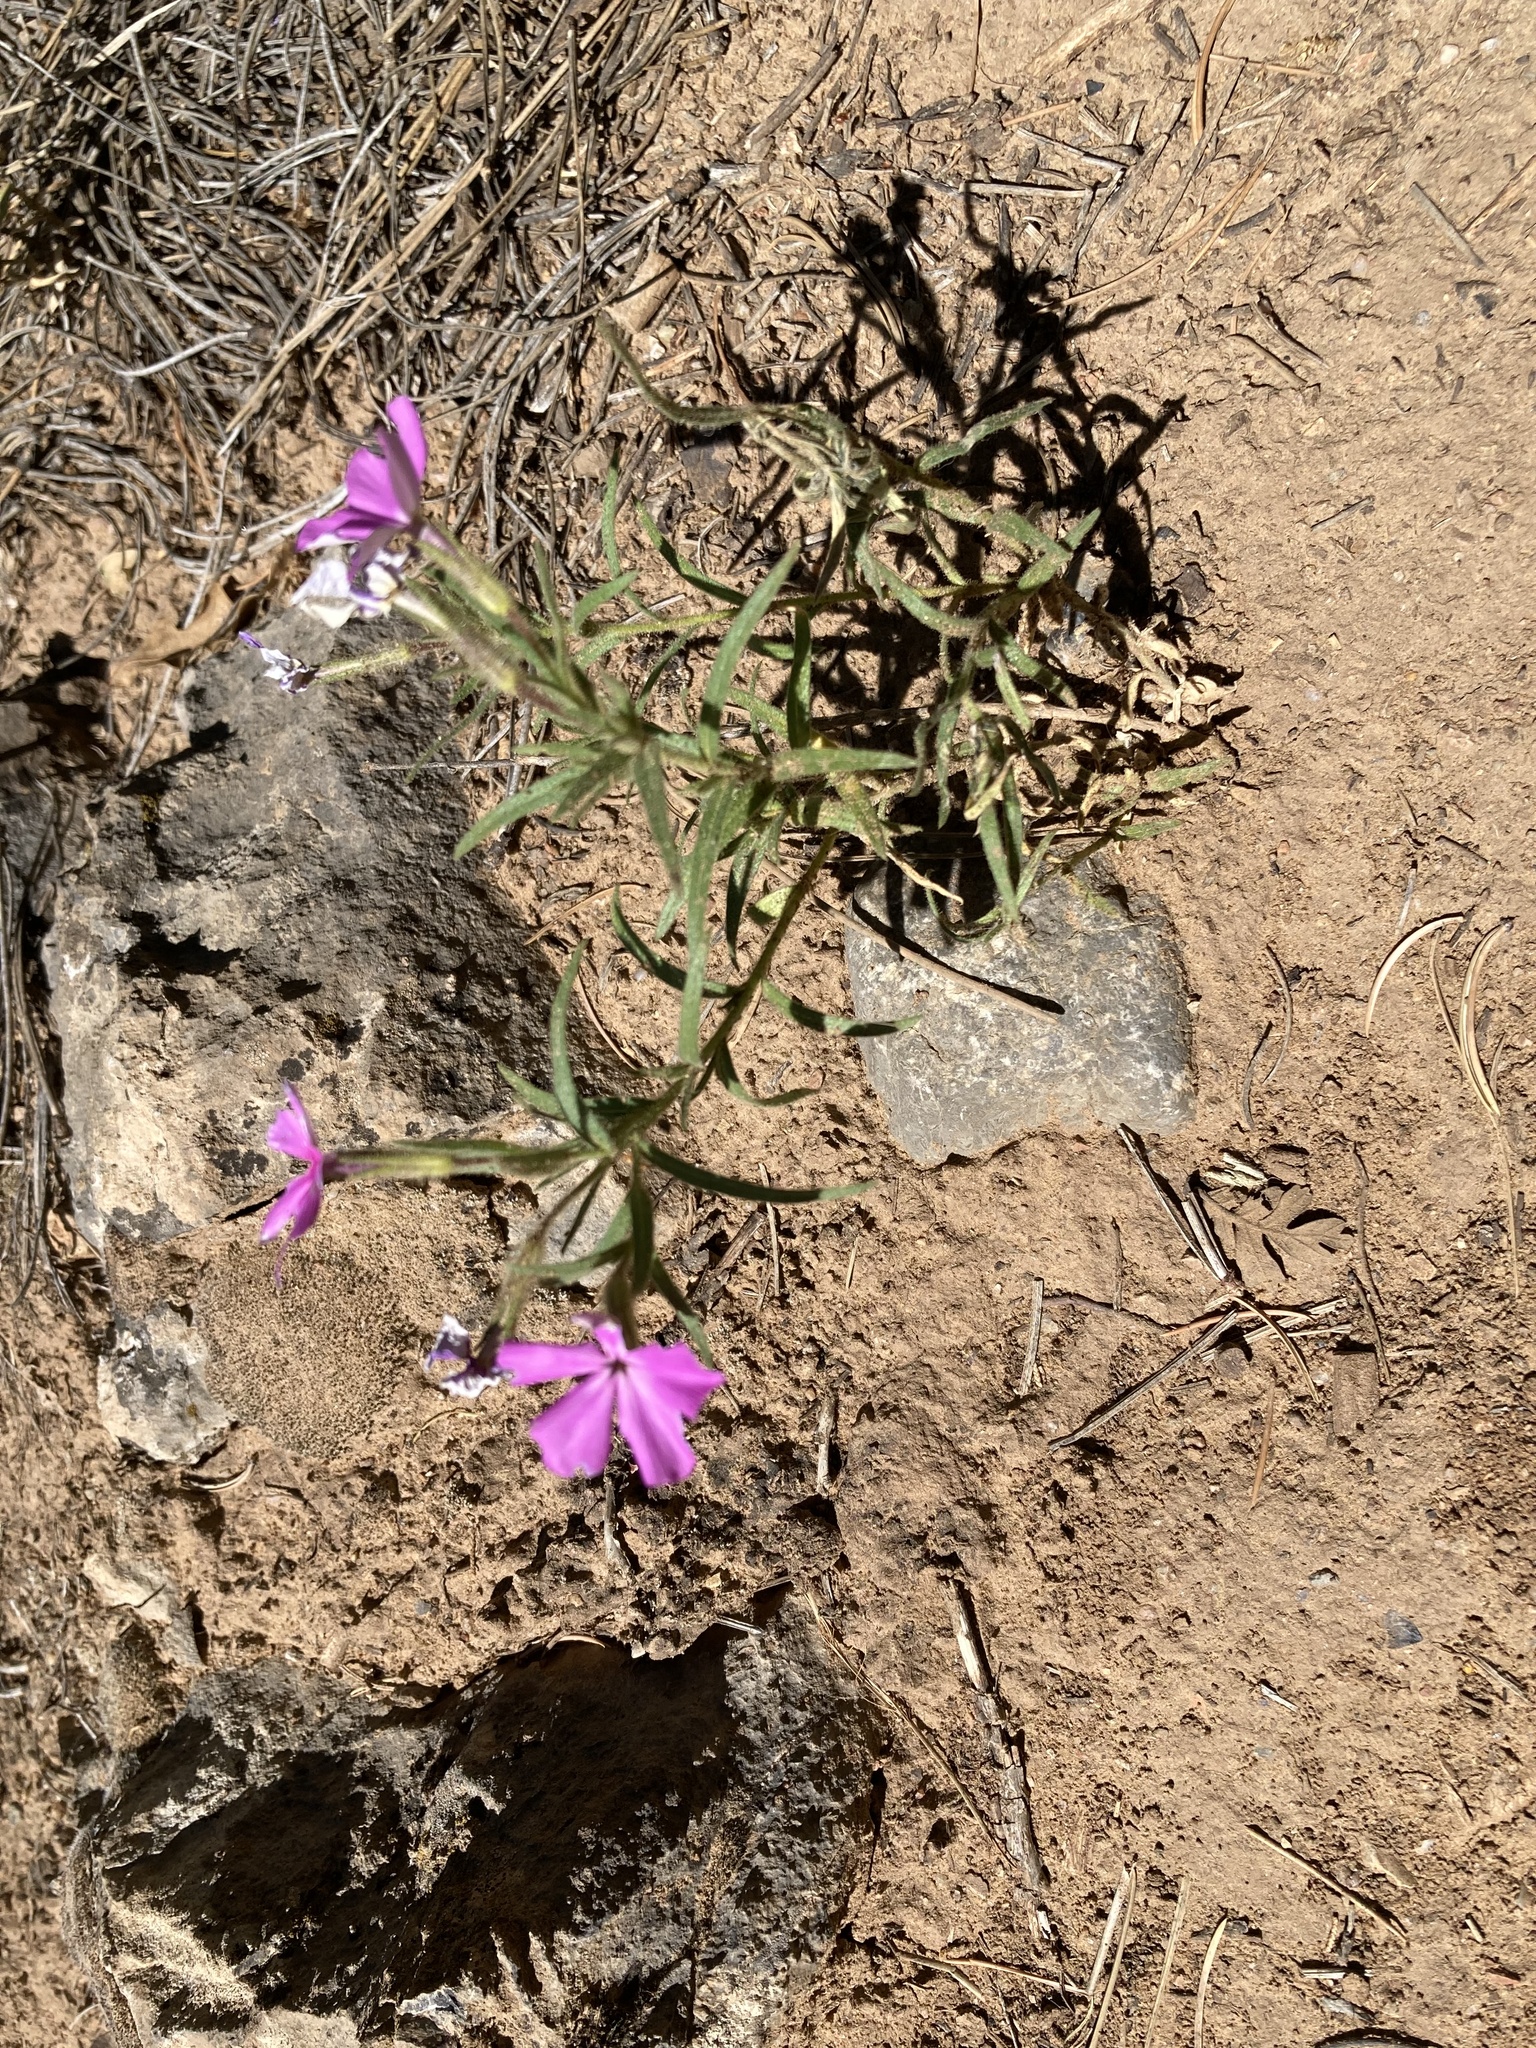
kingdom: Plantae
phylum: Tracheophyta
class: Magnoliopsida
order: Ericales
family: Polemoniaceae
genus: Phlox
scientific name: Phlox nana
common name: Santa fe phlox
